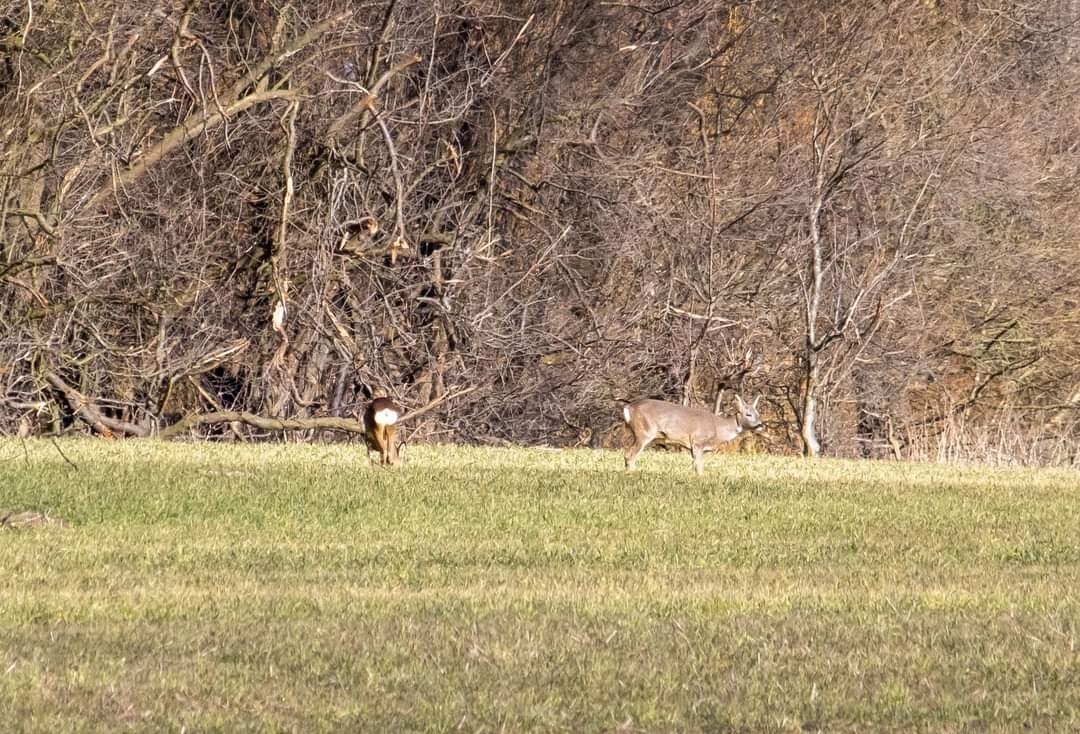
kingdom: Animalia
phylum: Chordata
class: Mammalia
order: Artiodactyla
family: Cervidae
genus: Capreolus
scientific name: Capreolus capreolus
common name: Western roe deer
